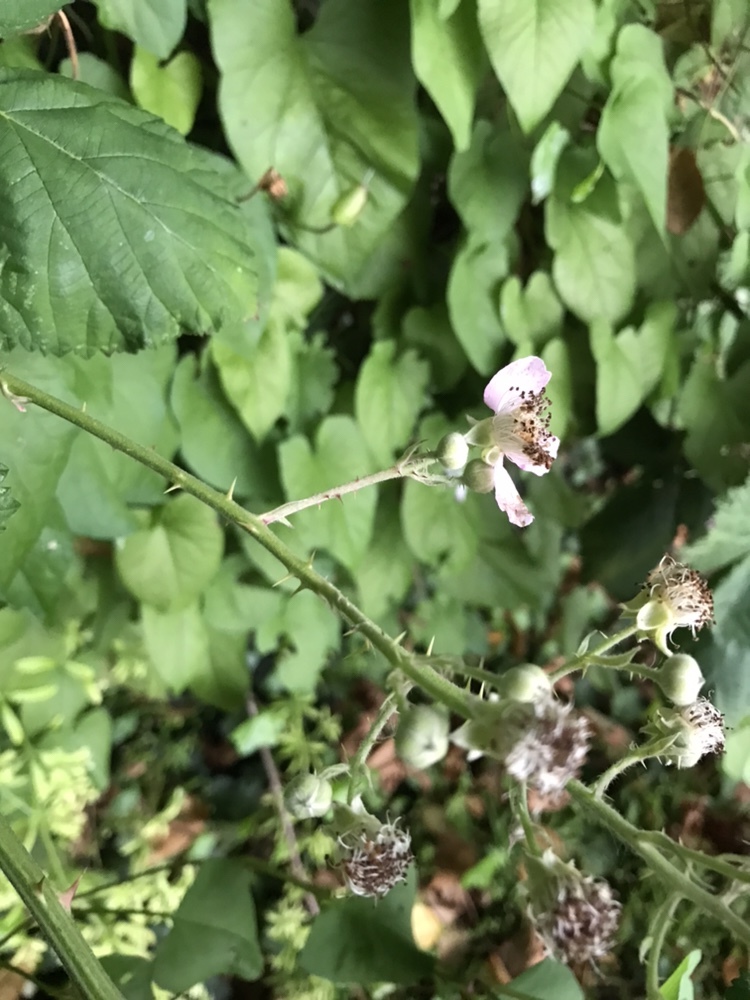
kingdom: Plantae
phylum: Tracheophyta
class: Magnoliopsida
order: Rosales
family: Rosaceae
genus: Rubus
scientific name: Rubus armeniacus
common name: Himalayan blackberry
